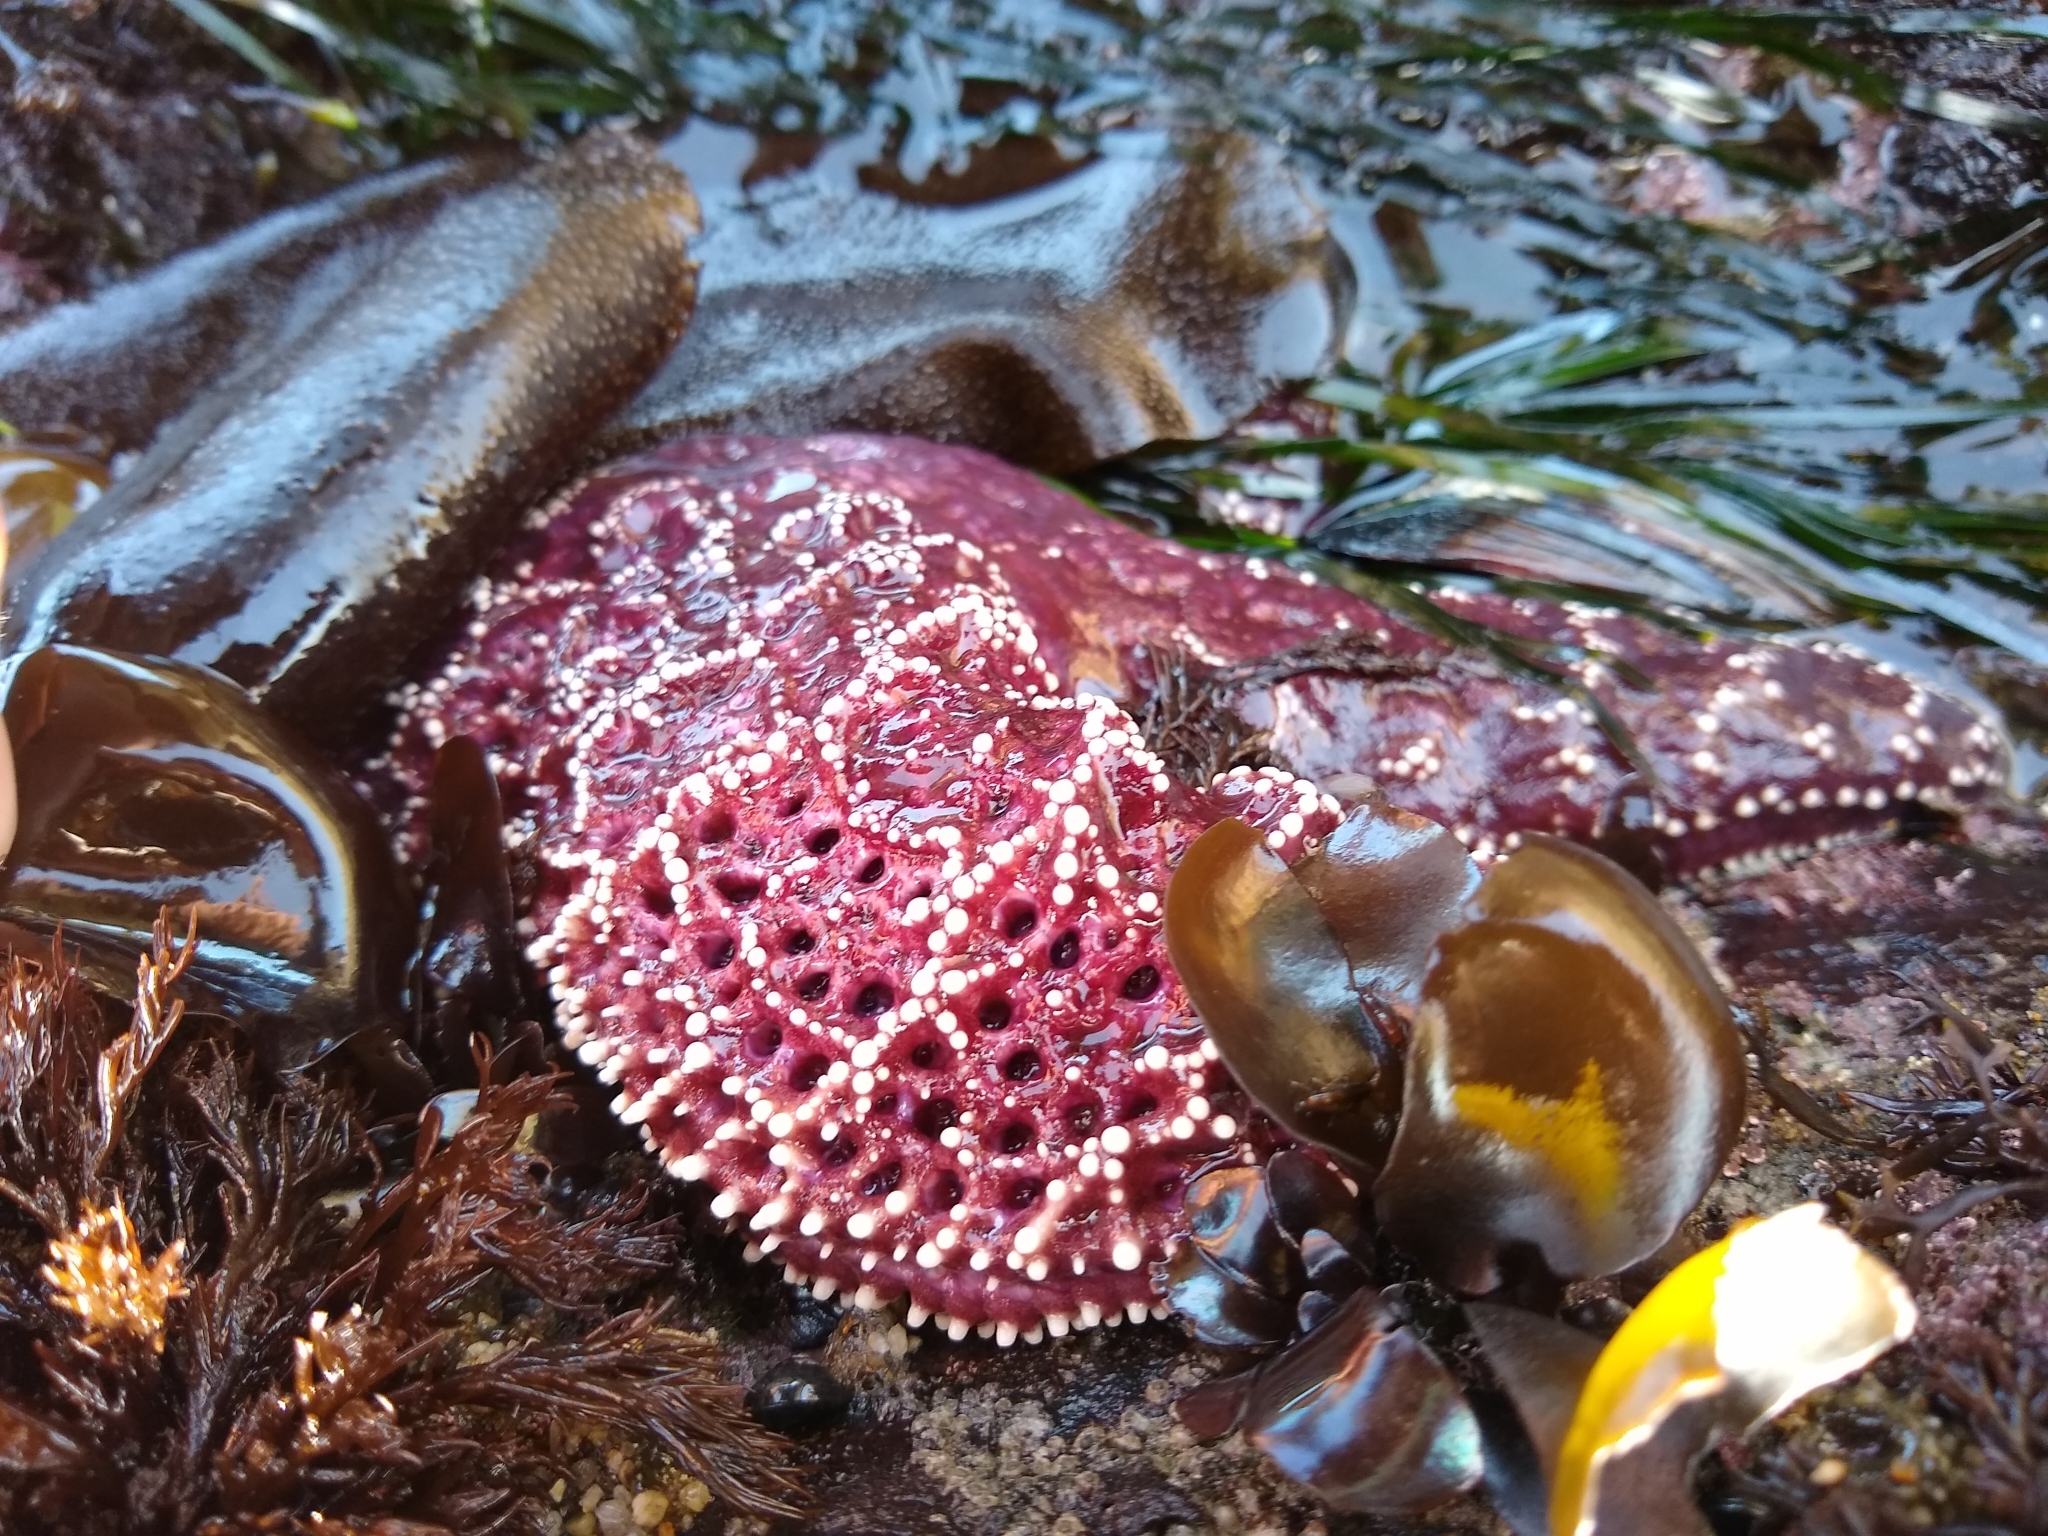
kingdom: Animalia
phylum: Echinodermata
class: Asteroidea
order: Forcipulatida
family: Asteriidae
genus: Pisaster
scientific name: Pisaster ochraceus
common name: Ochre stars
